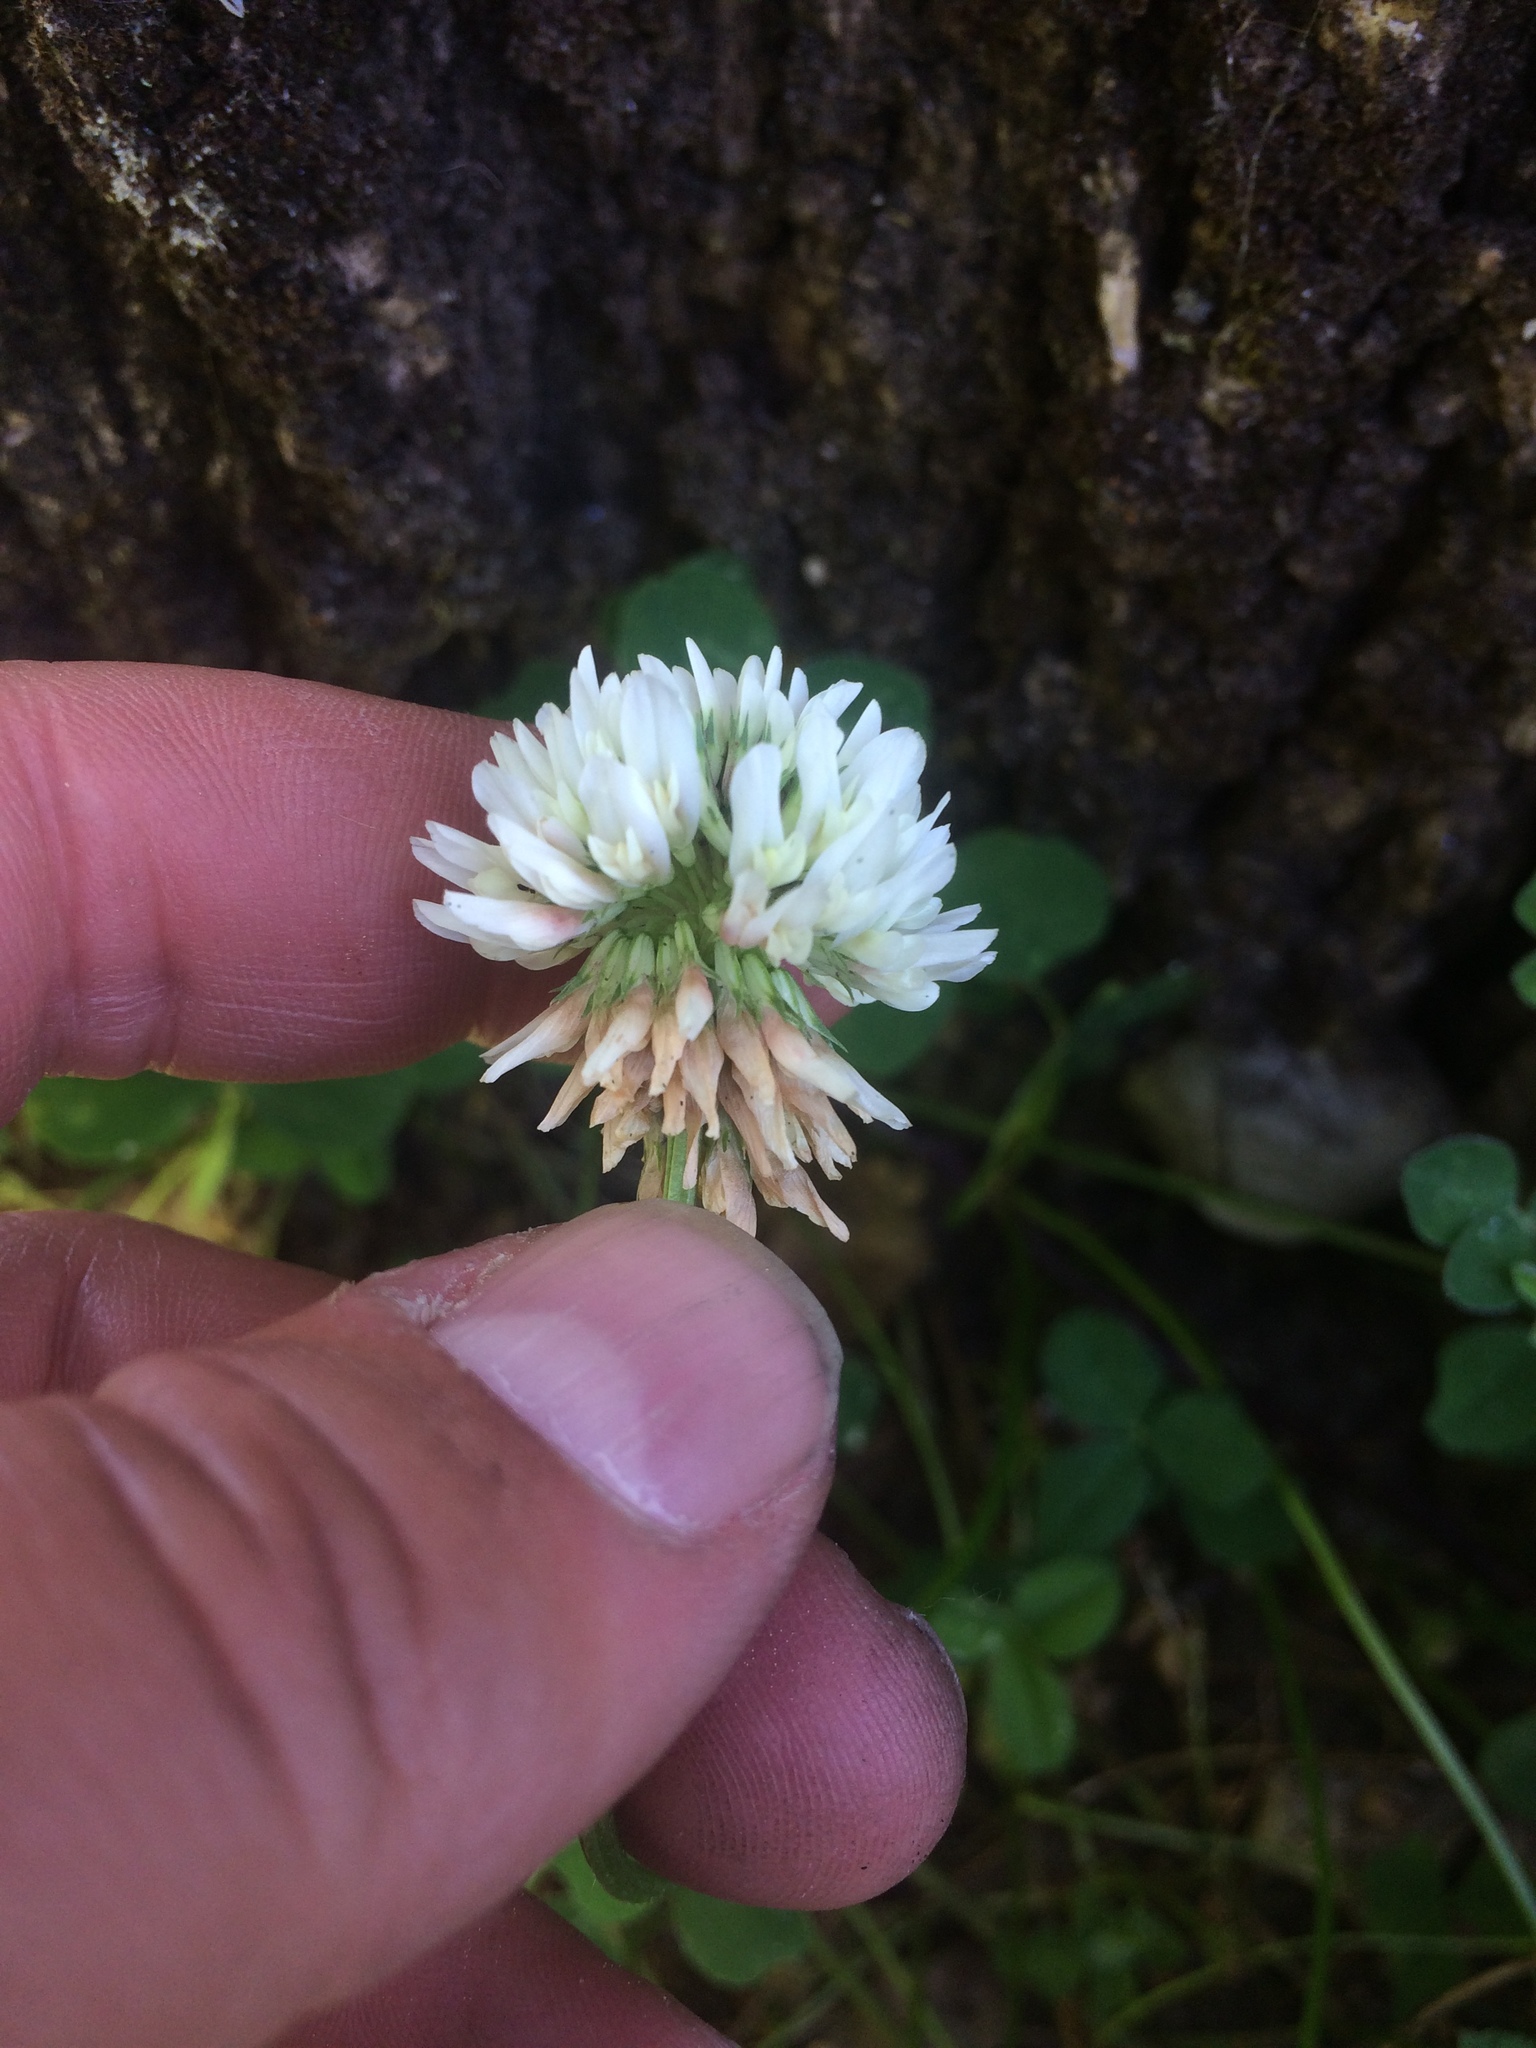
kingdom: Plantae
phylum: Tracheophyta
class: Magnoliopsida
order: Fabales
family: Fabaceae
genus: Trifolium
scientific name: Trifolium repens
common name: White clover
